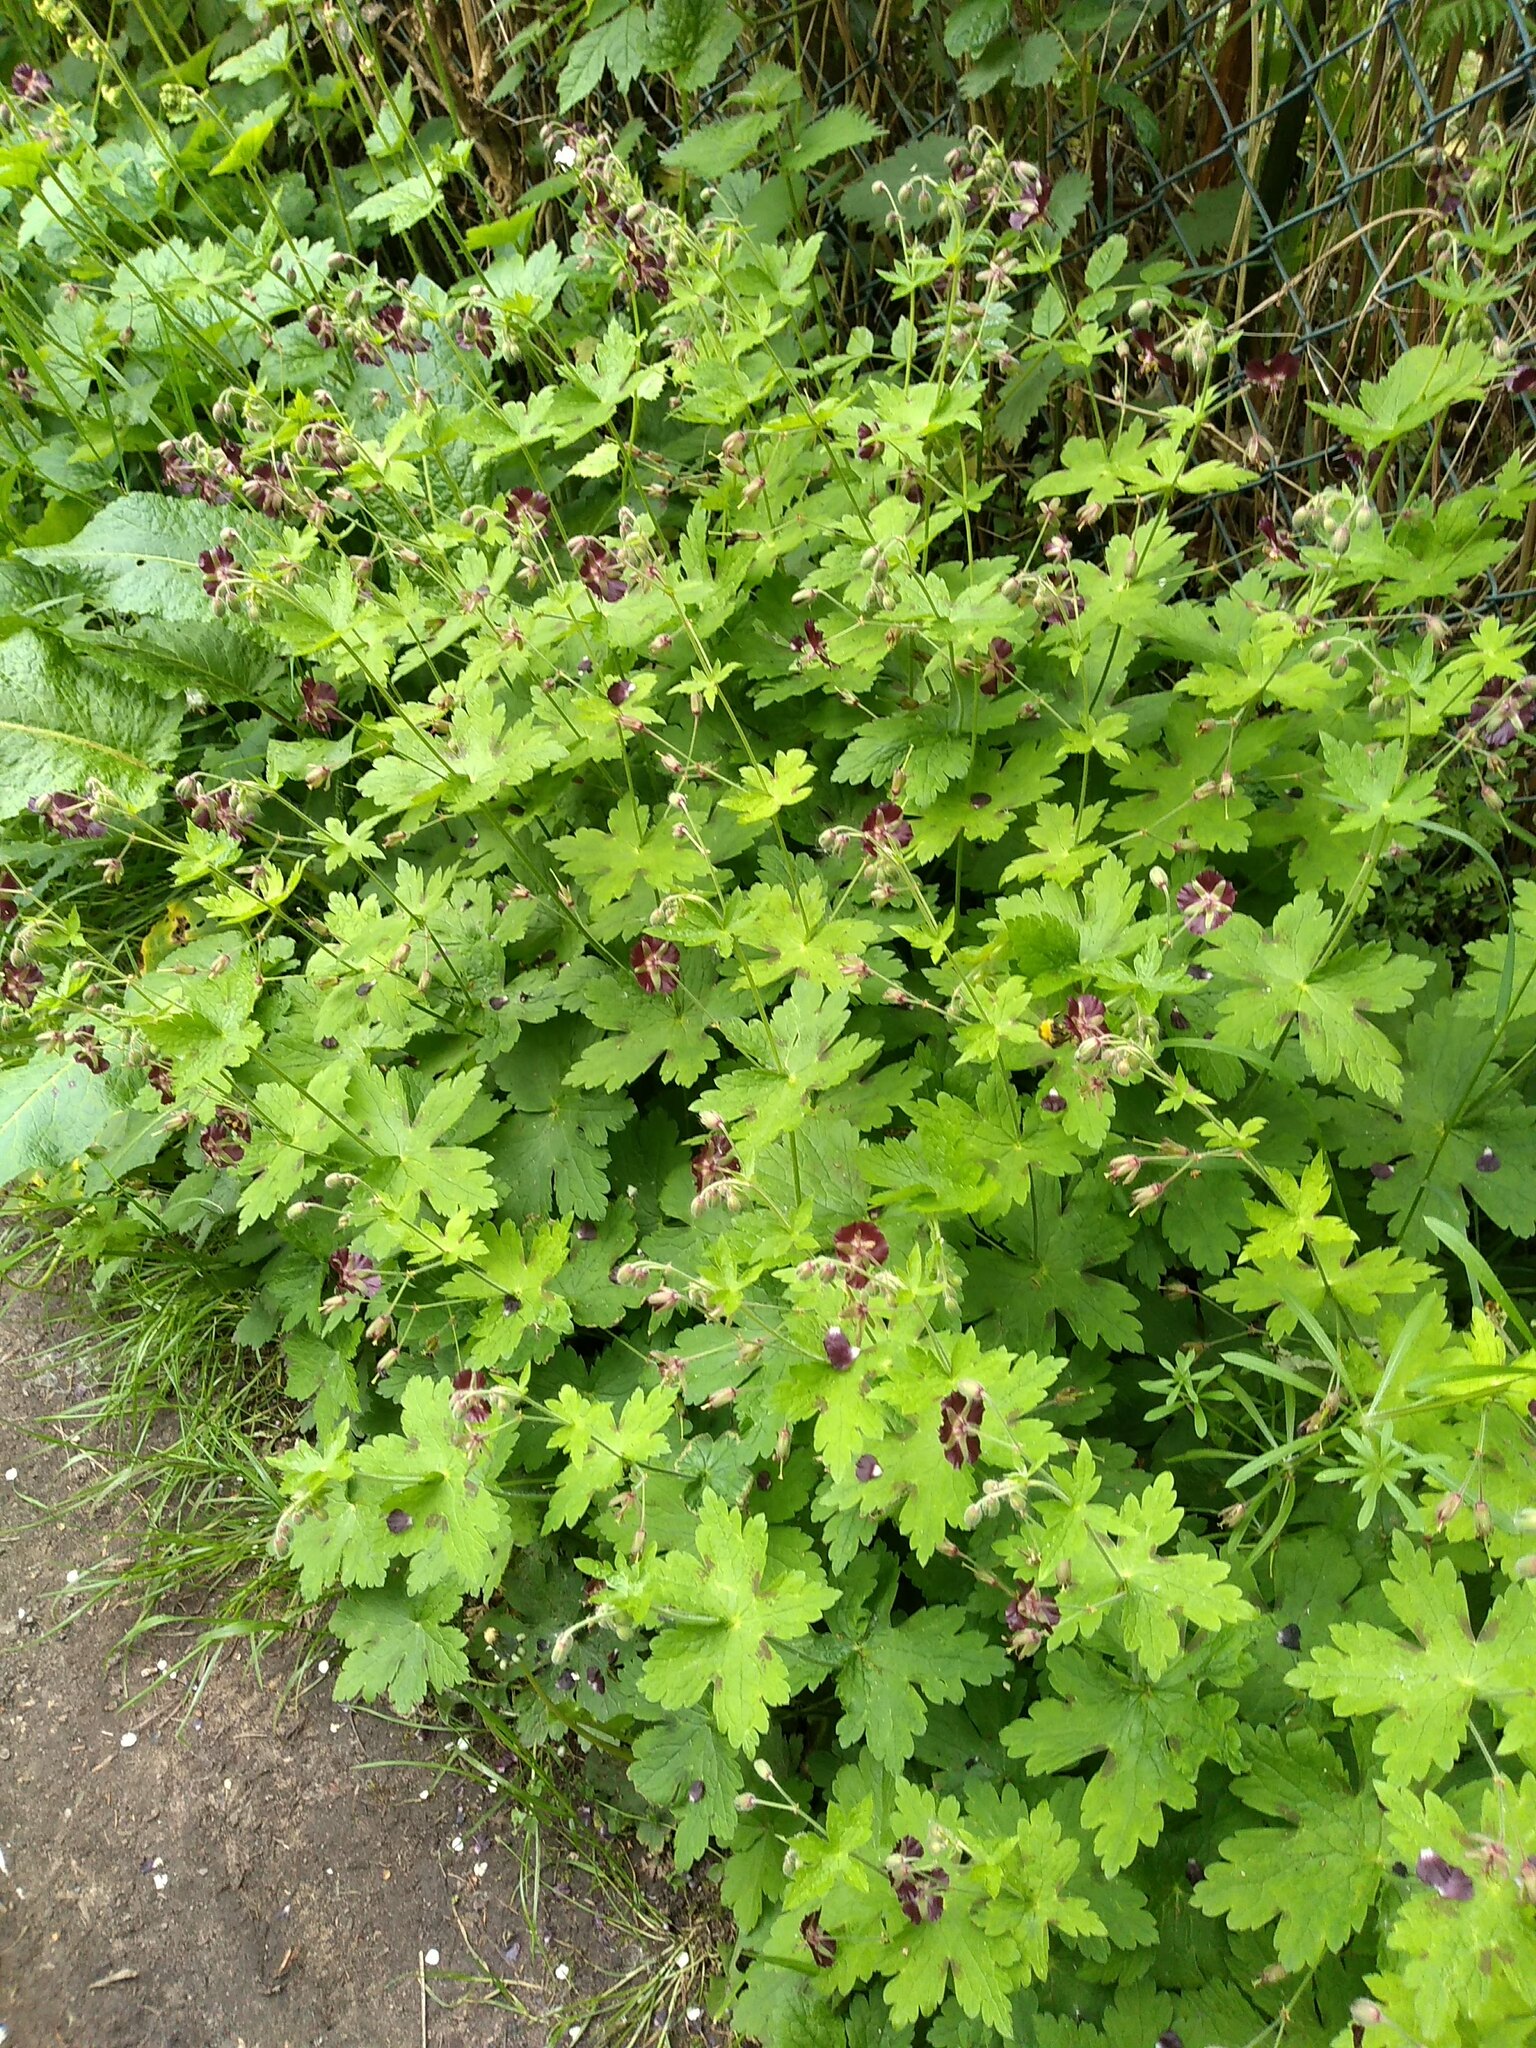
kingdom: Plantae
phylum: Tracheophyta
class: Magnoliopsida
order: Geraniales
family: Geraniaceae
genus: Geranium
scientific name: Geranium phaeum
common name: Dusky crane's-bill
